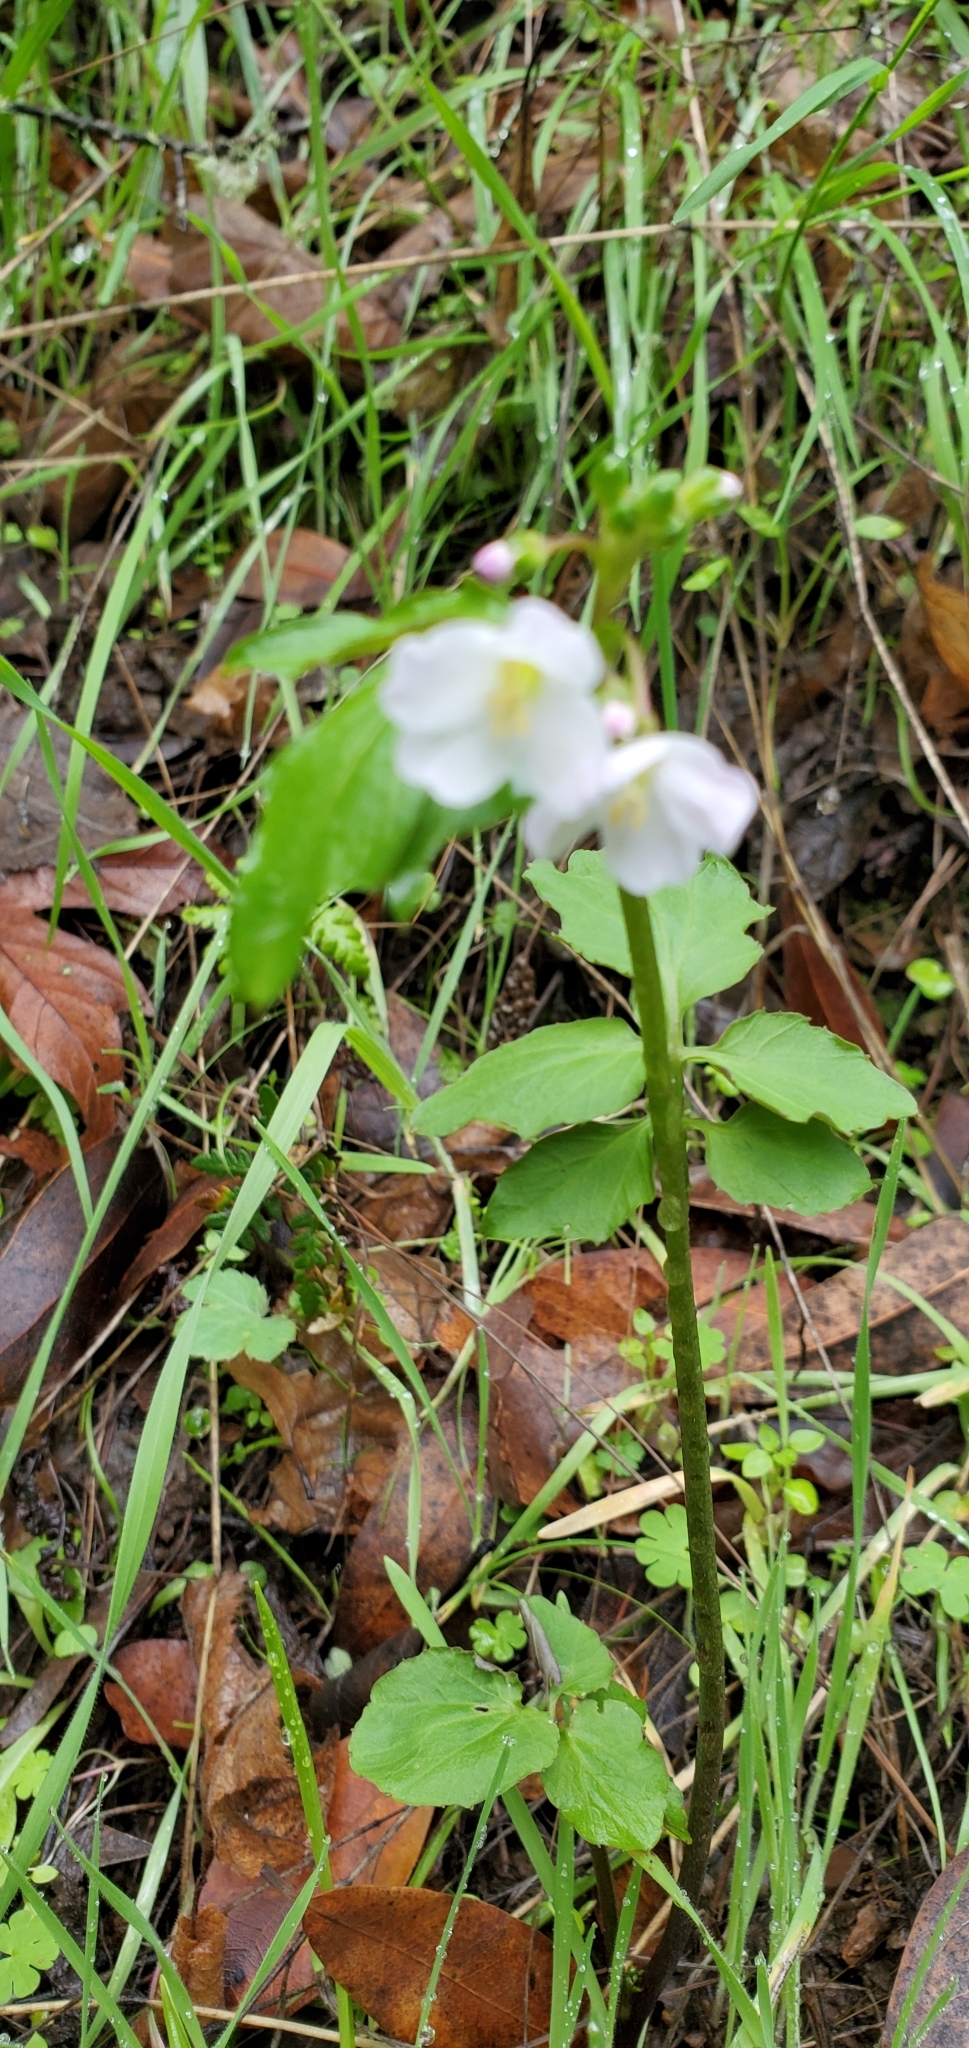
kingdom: Plantae
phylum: Tracheophyta
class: Magnoliopsida
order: Brassicales
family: Brassicaceae
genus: Cardamine
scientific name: Cardamine californica
